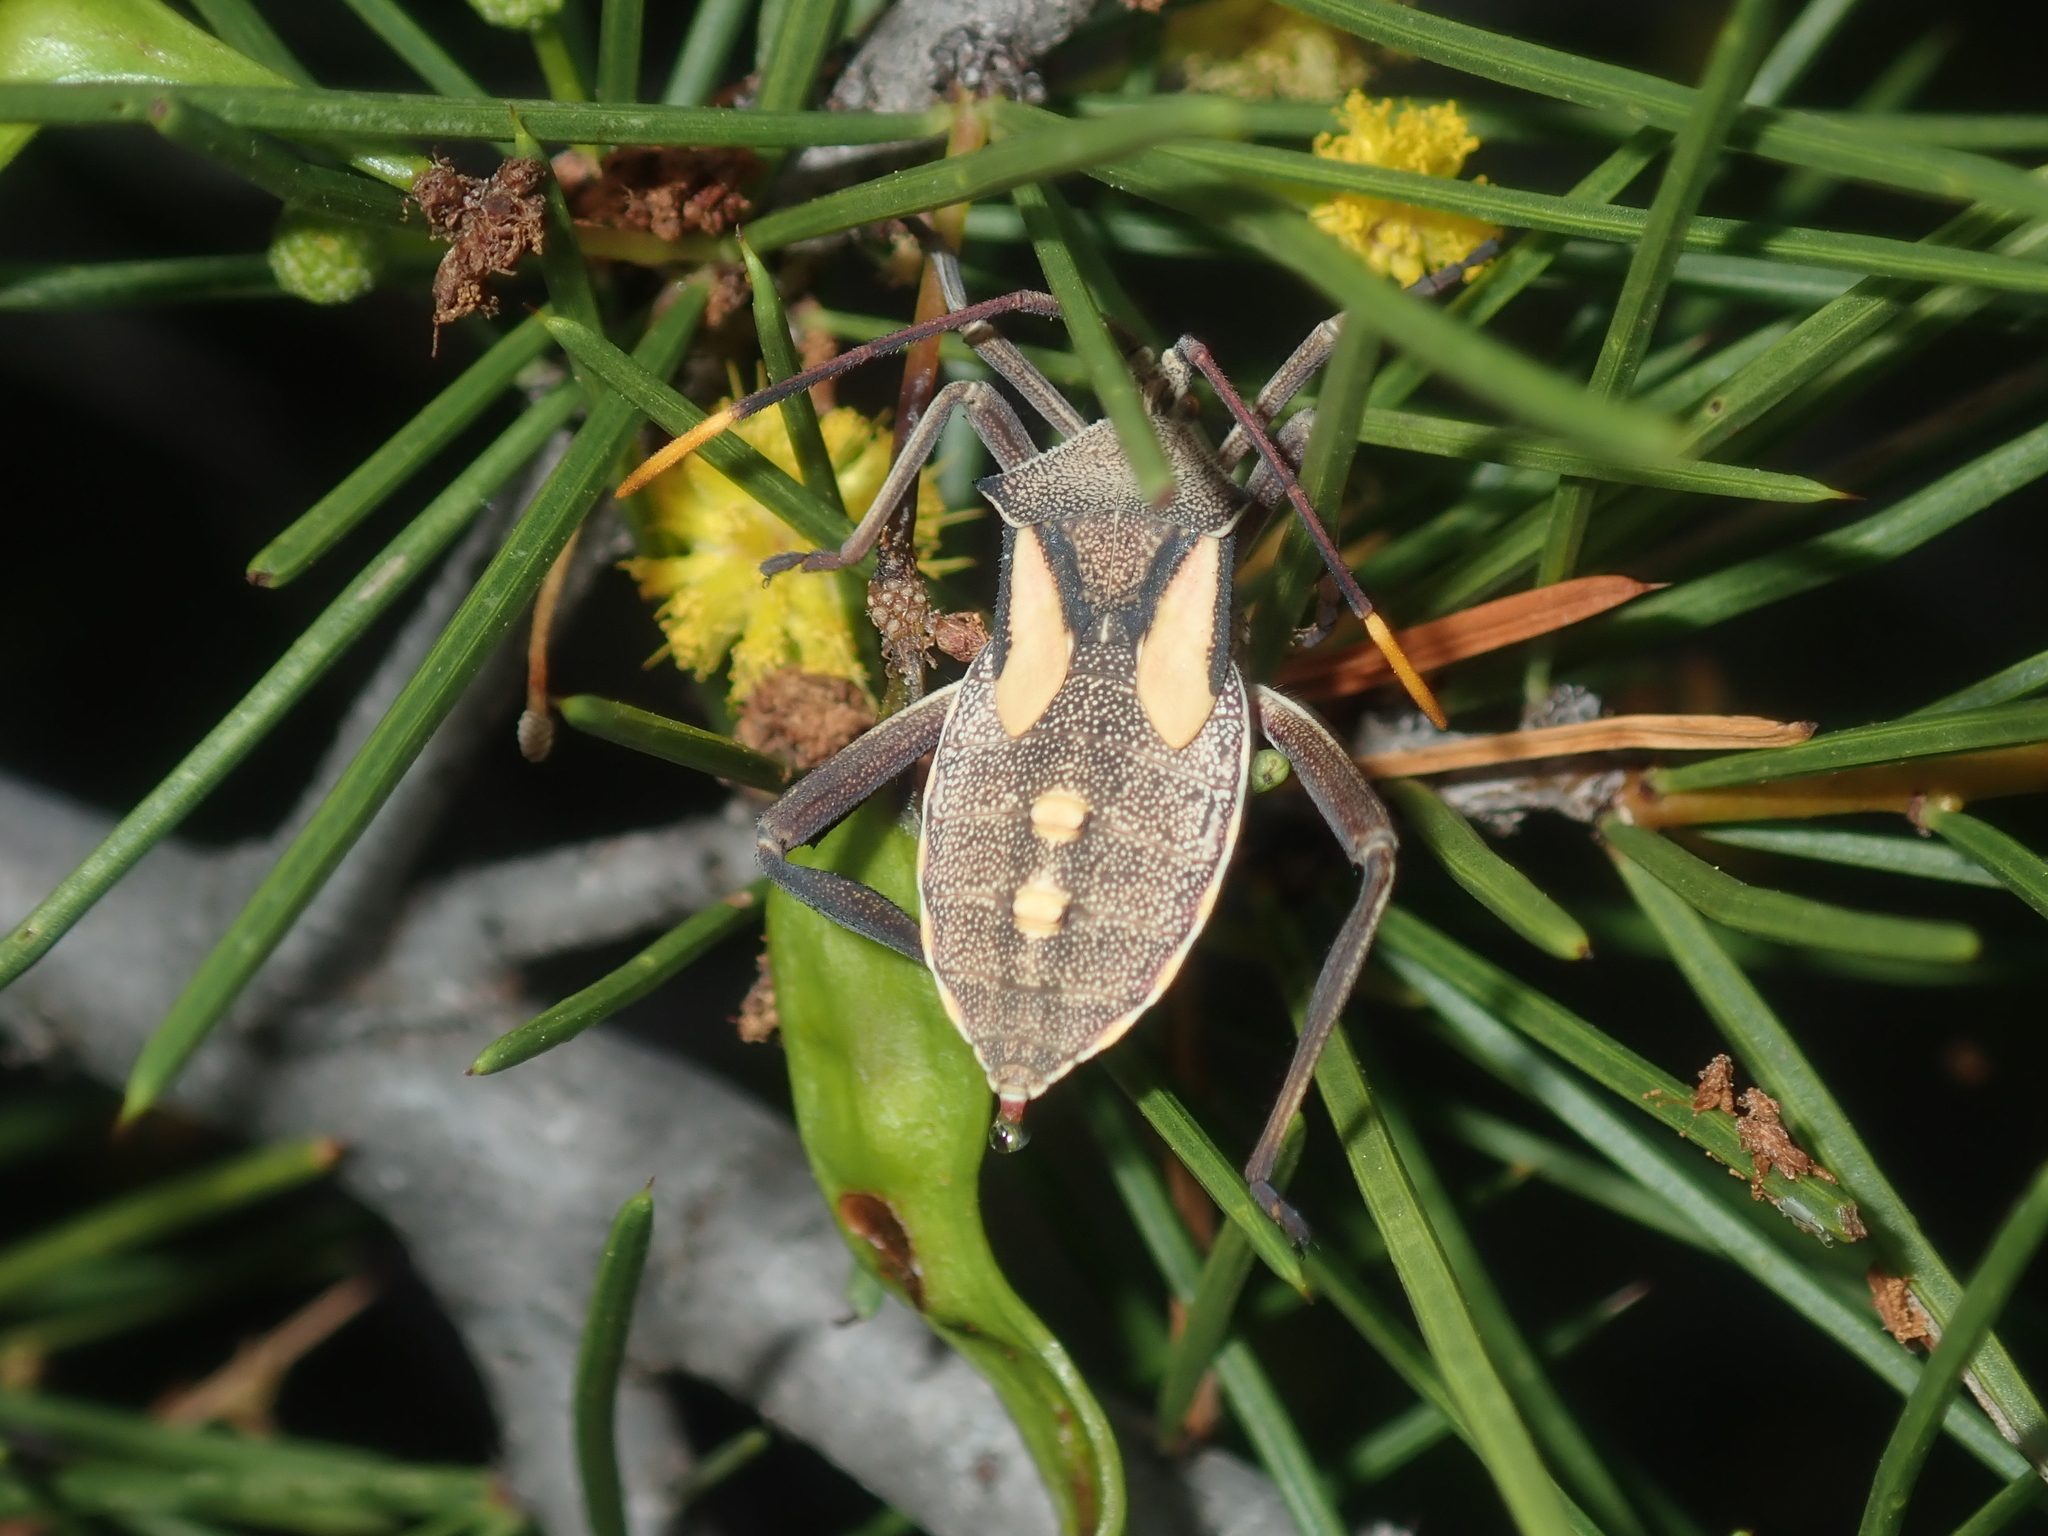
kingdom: Animalia
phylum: Arthropoda
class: Insecta
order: Hemiptera
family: Coreidae
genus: Mictis
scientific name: Mictis profana
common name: Crusader bug
